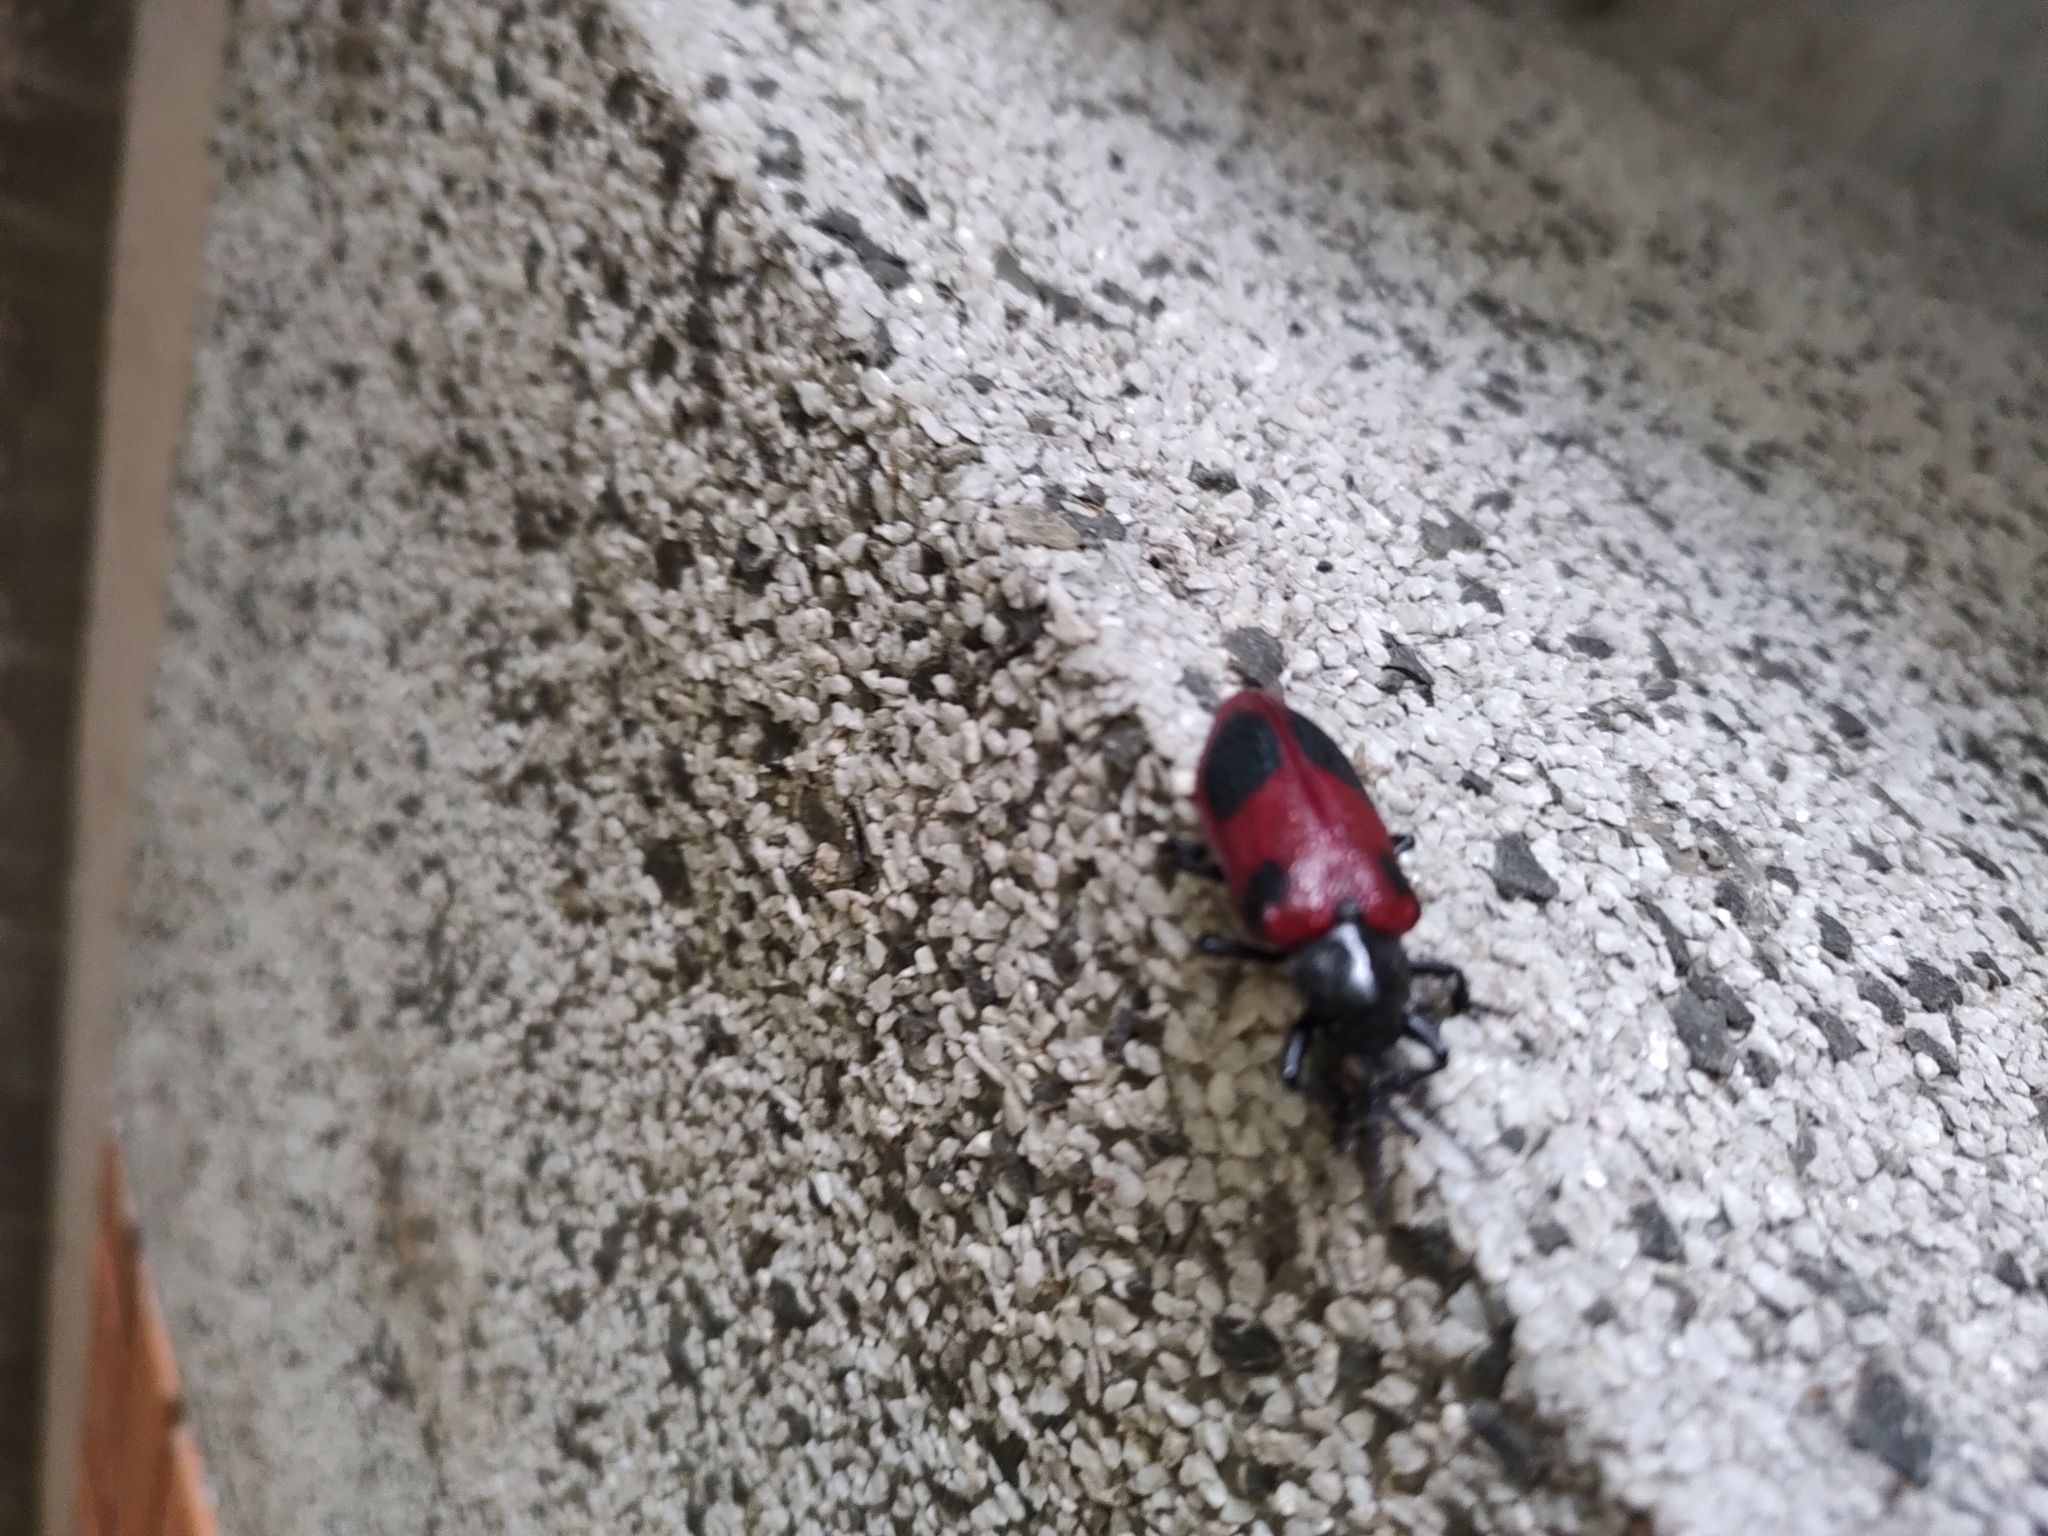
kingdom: Animalia
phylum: Arthropoda
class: Insecta
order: Coleoptera
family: Chrysomelidae
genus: Coraliomela
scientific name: Coraliomela quadrimaculata
